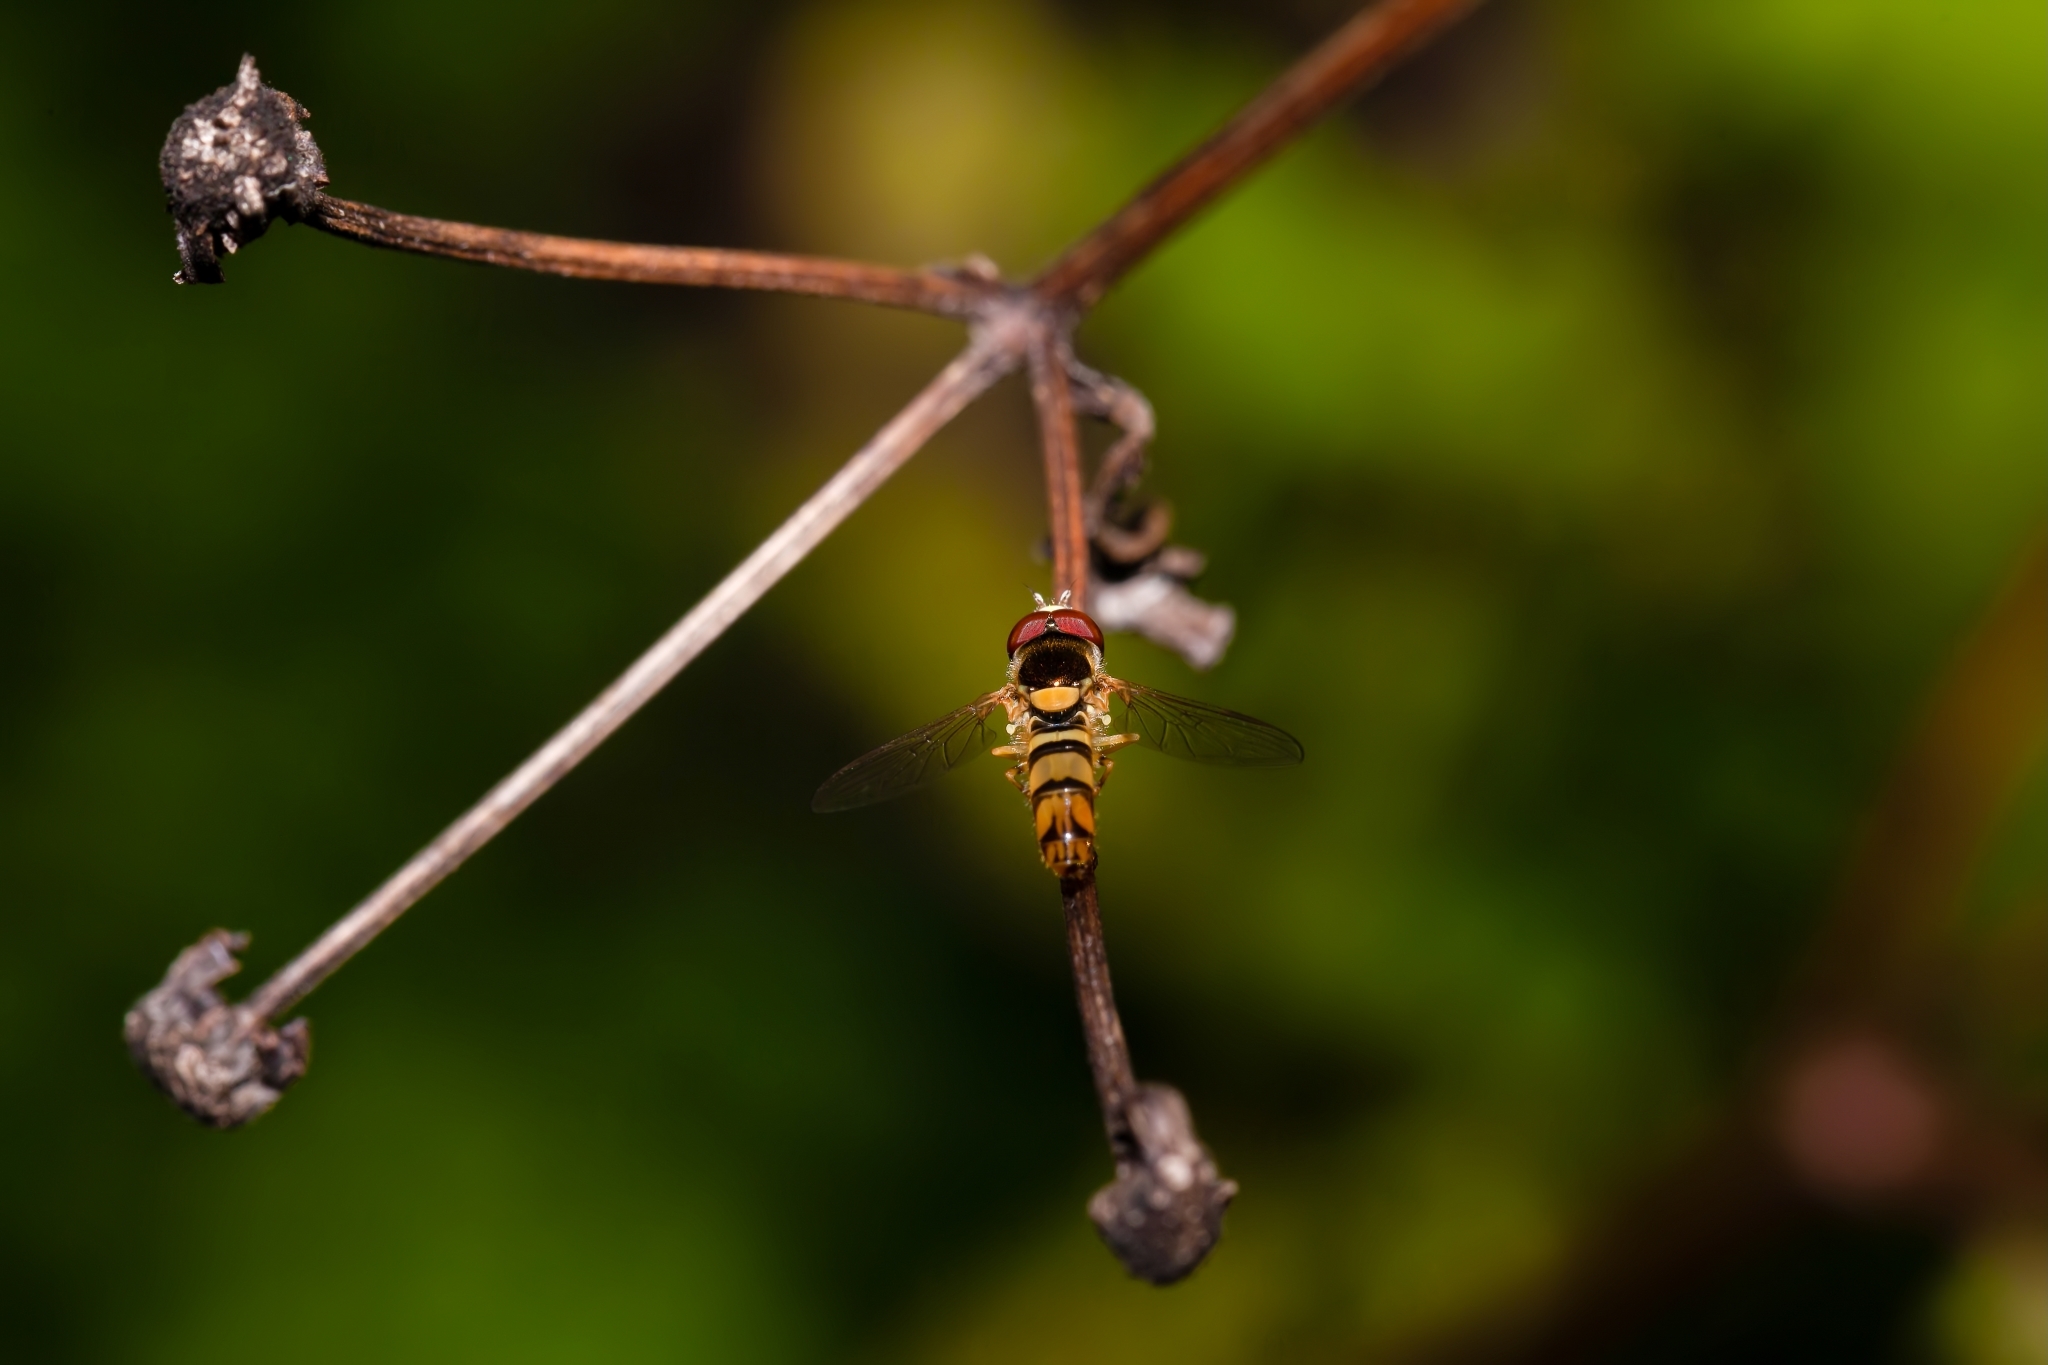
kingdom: Animalia
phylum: Arthropoda
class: Insecta
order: Diptera
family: Syrphidae
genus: Allograpta
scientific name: Allograpta exotica
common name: Syrphid fly
